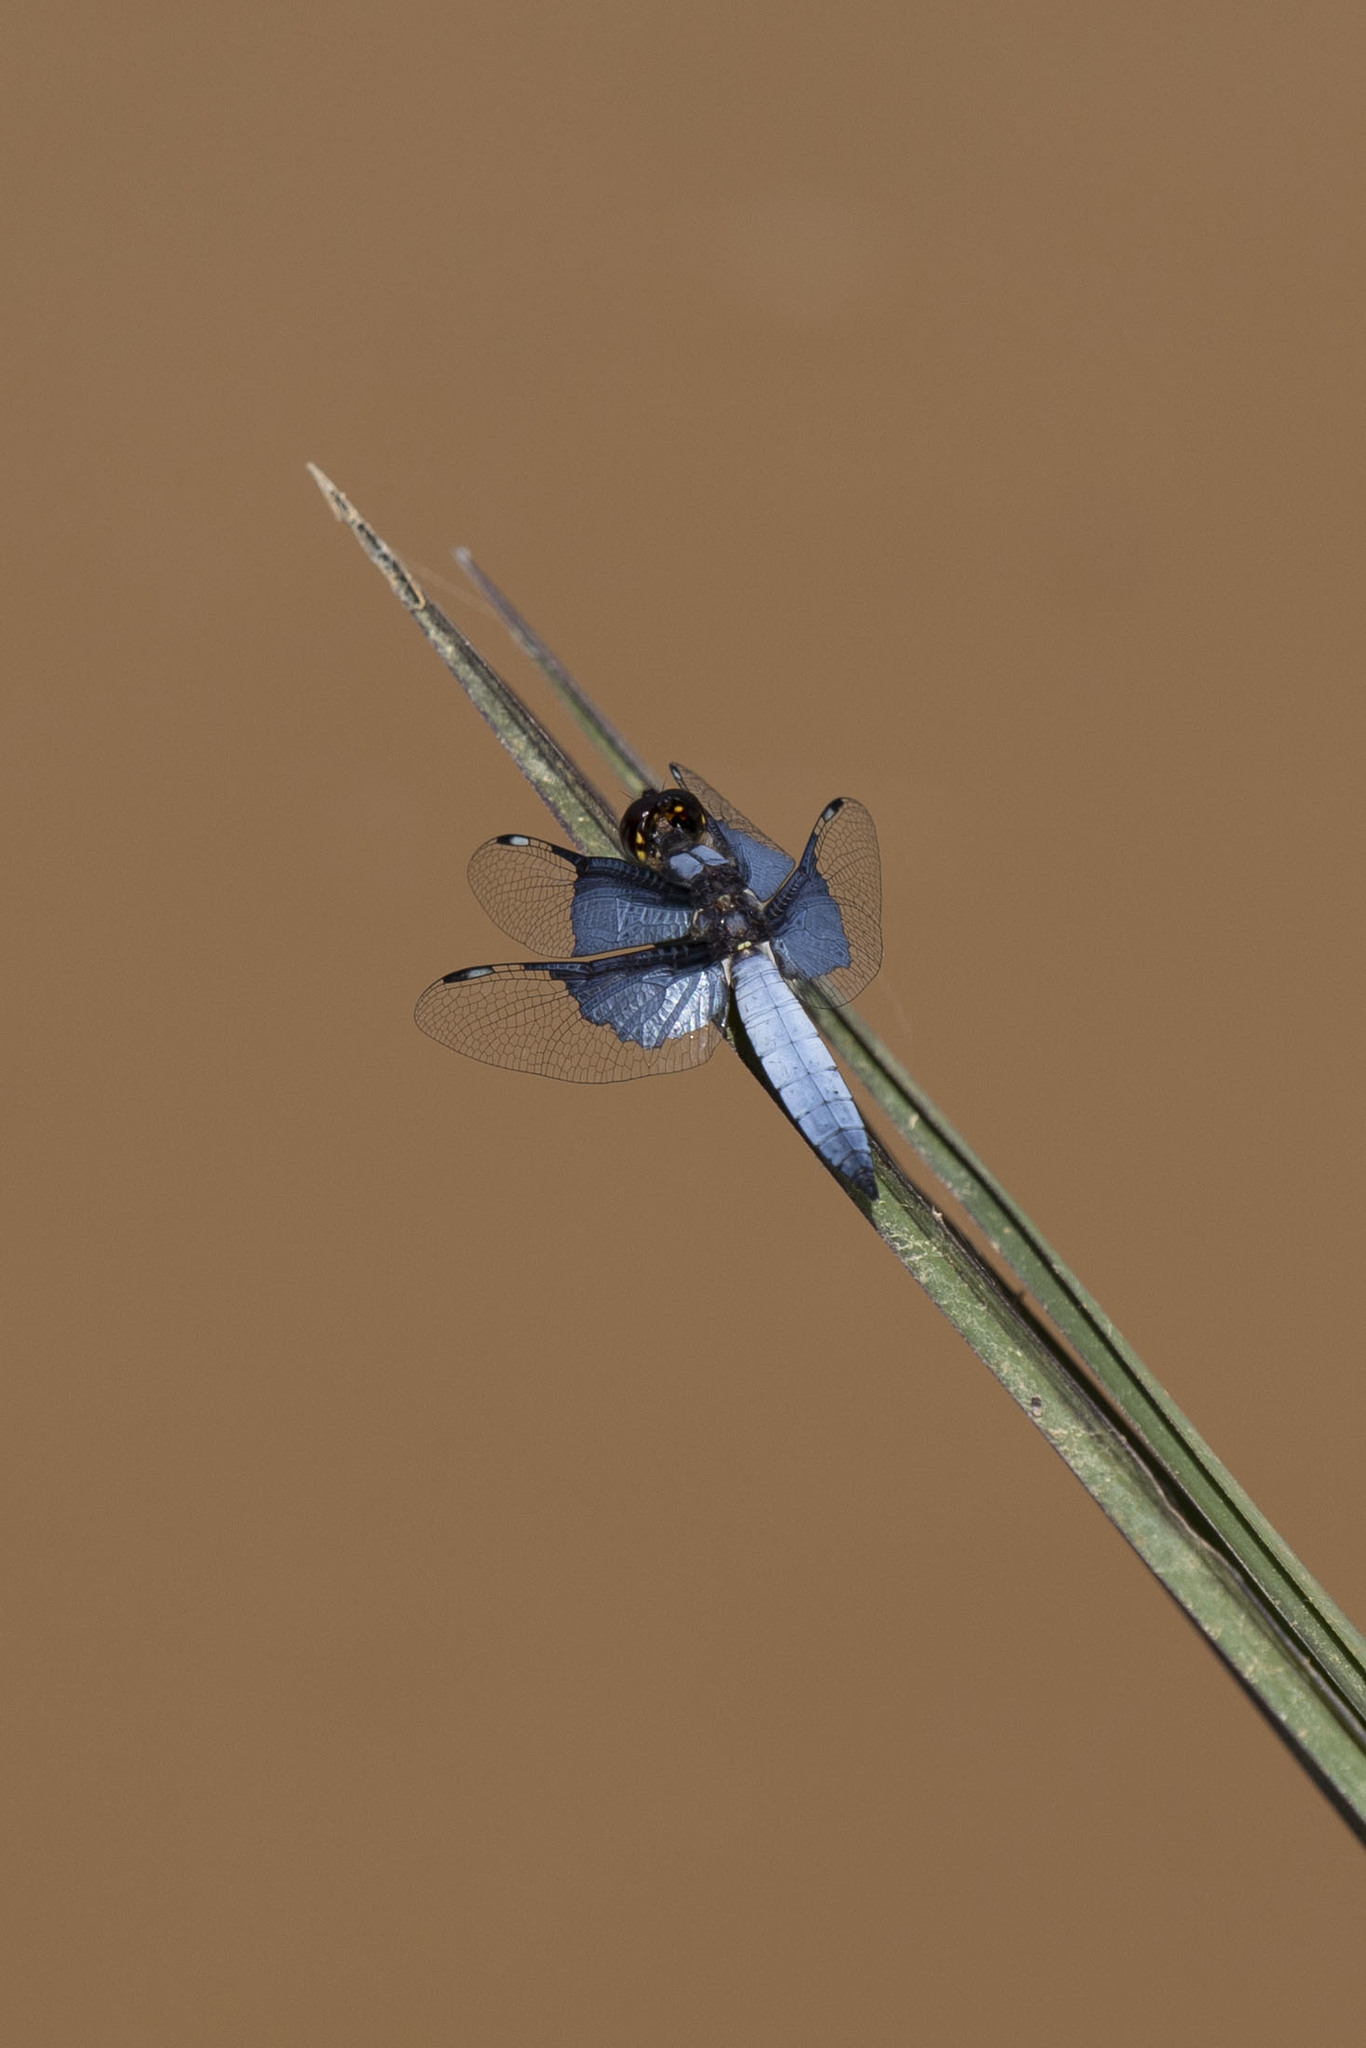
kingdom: Animalia
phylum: Arthropoda
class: Insecta
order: Odonata
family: Libellulidae
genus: Palpopleura
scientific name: Palpopleura vestita
